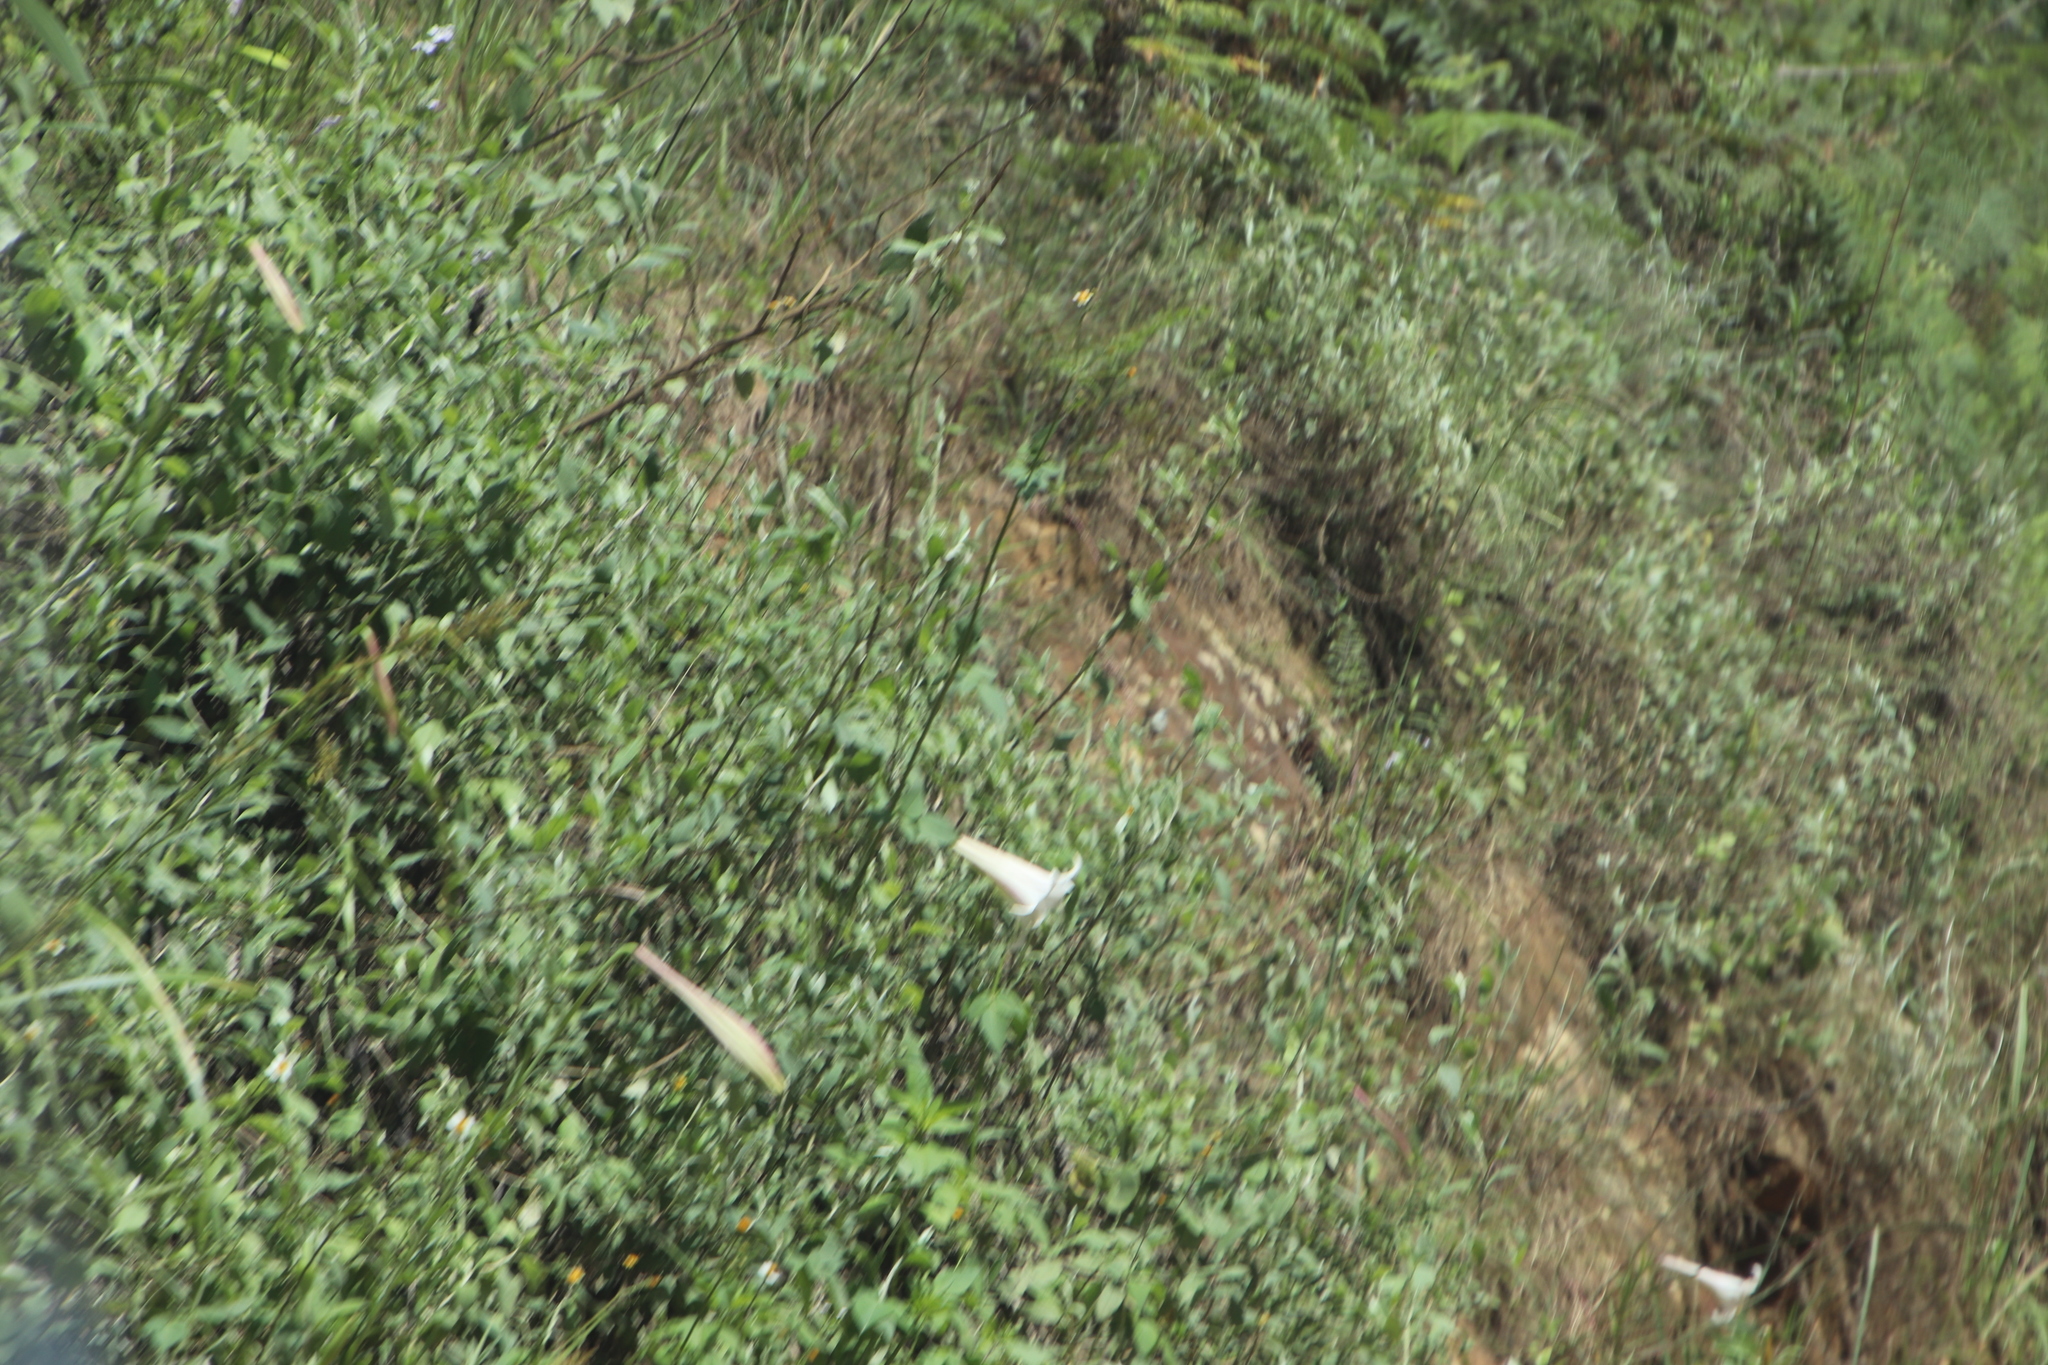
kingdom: Plantae
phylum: Tracheophyta
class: Liliopsida
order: Liliales
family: Liliaceae
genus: Lilium
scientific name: Lilium formosanum
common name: Formosa lily
